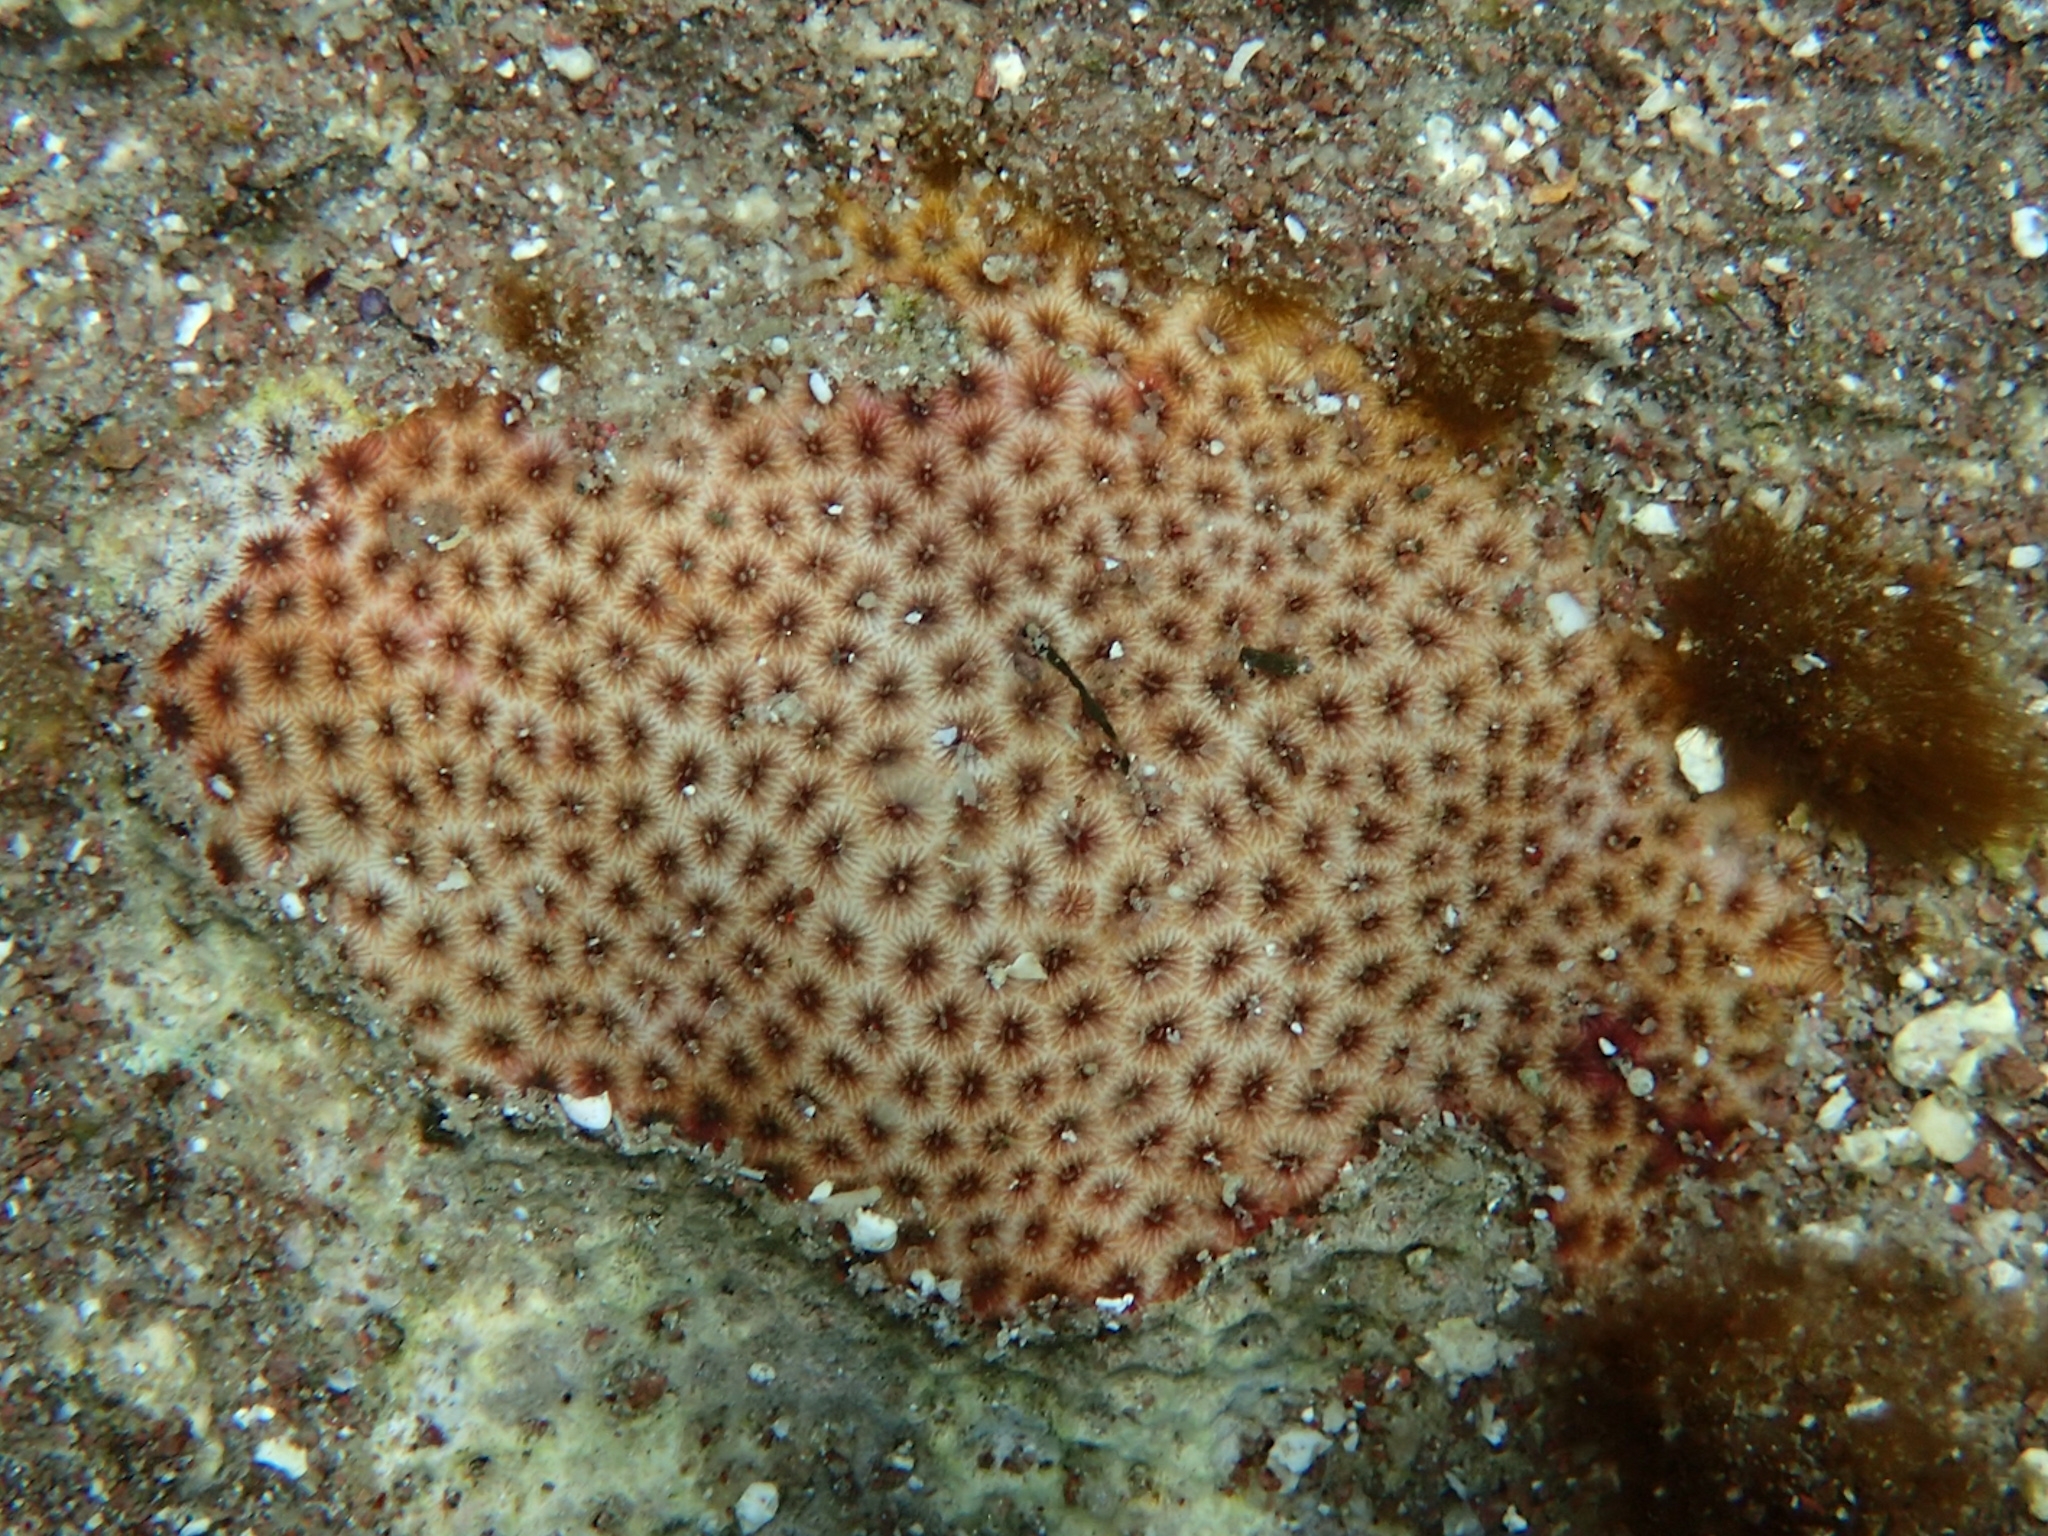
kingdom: Animalia
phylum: Cnidaria
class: Anthozoa
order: Scleractinia
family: Rhizangiidae
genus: Siderastrea
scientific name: Siderastrea radians
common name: Lesser starlet coral
